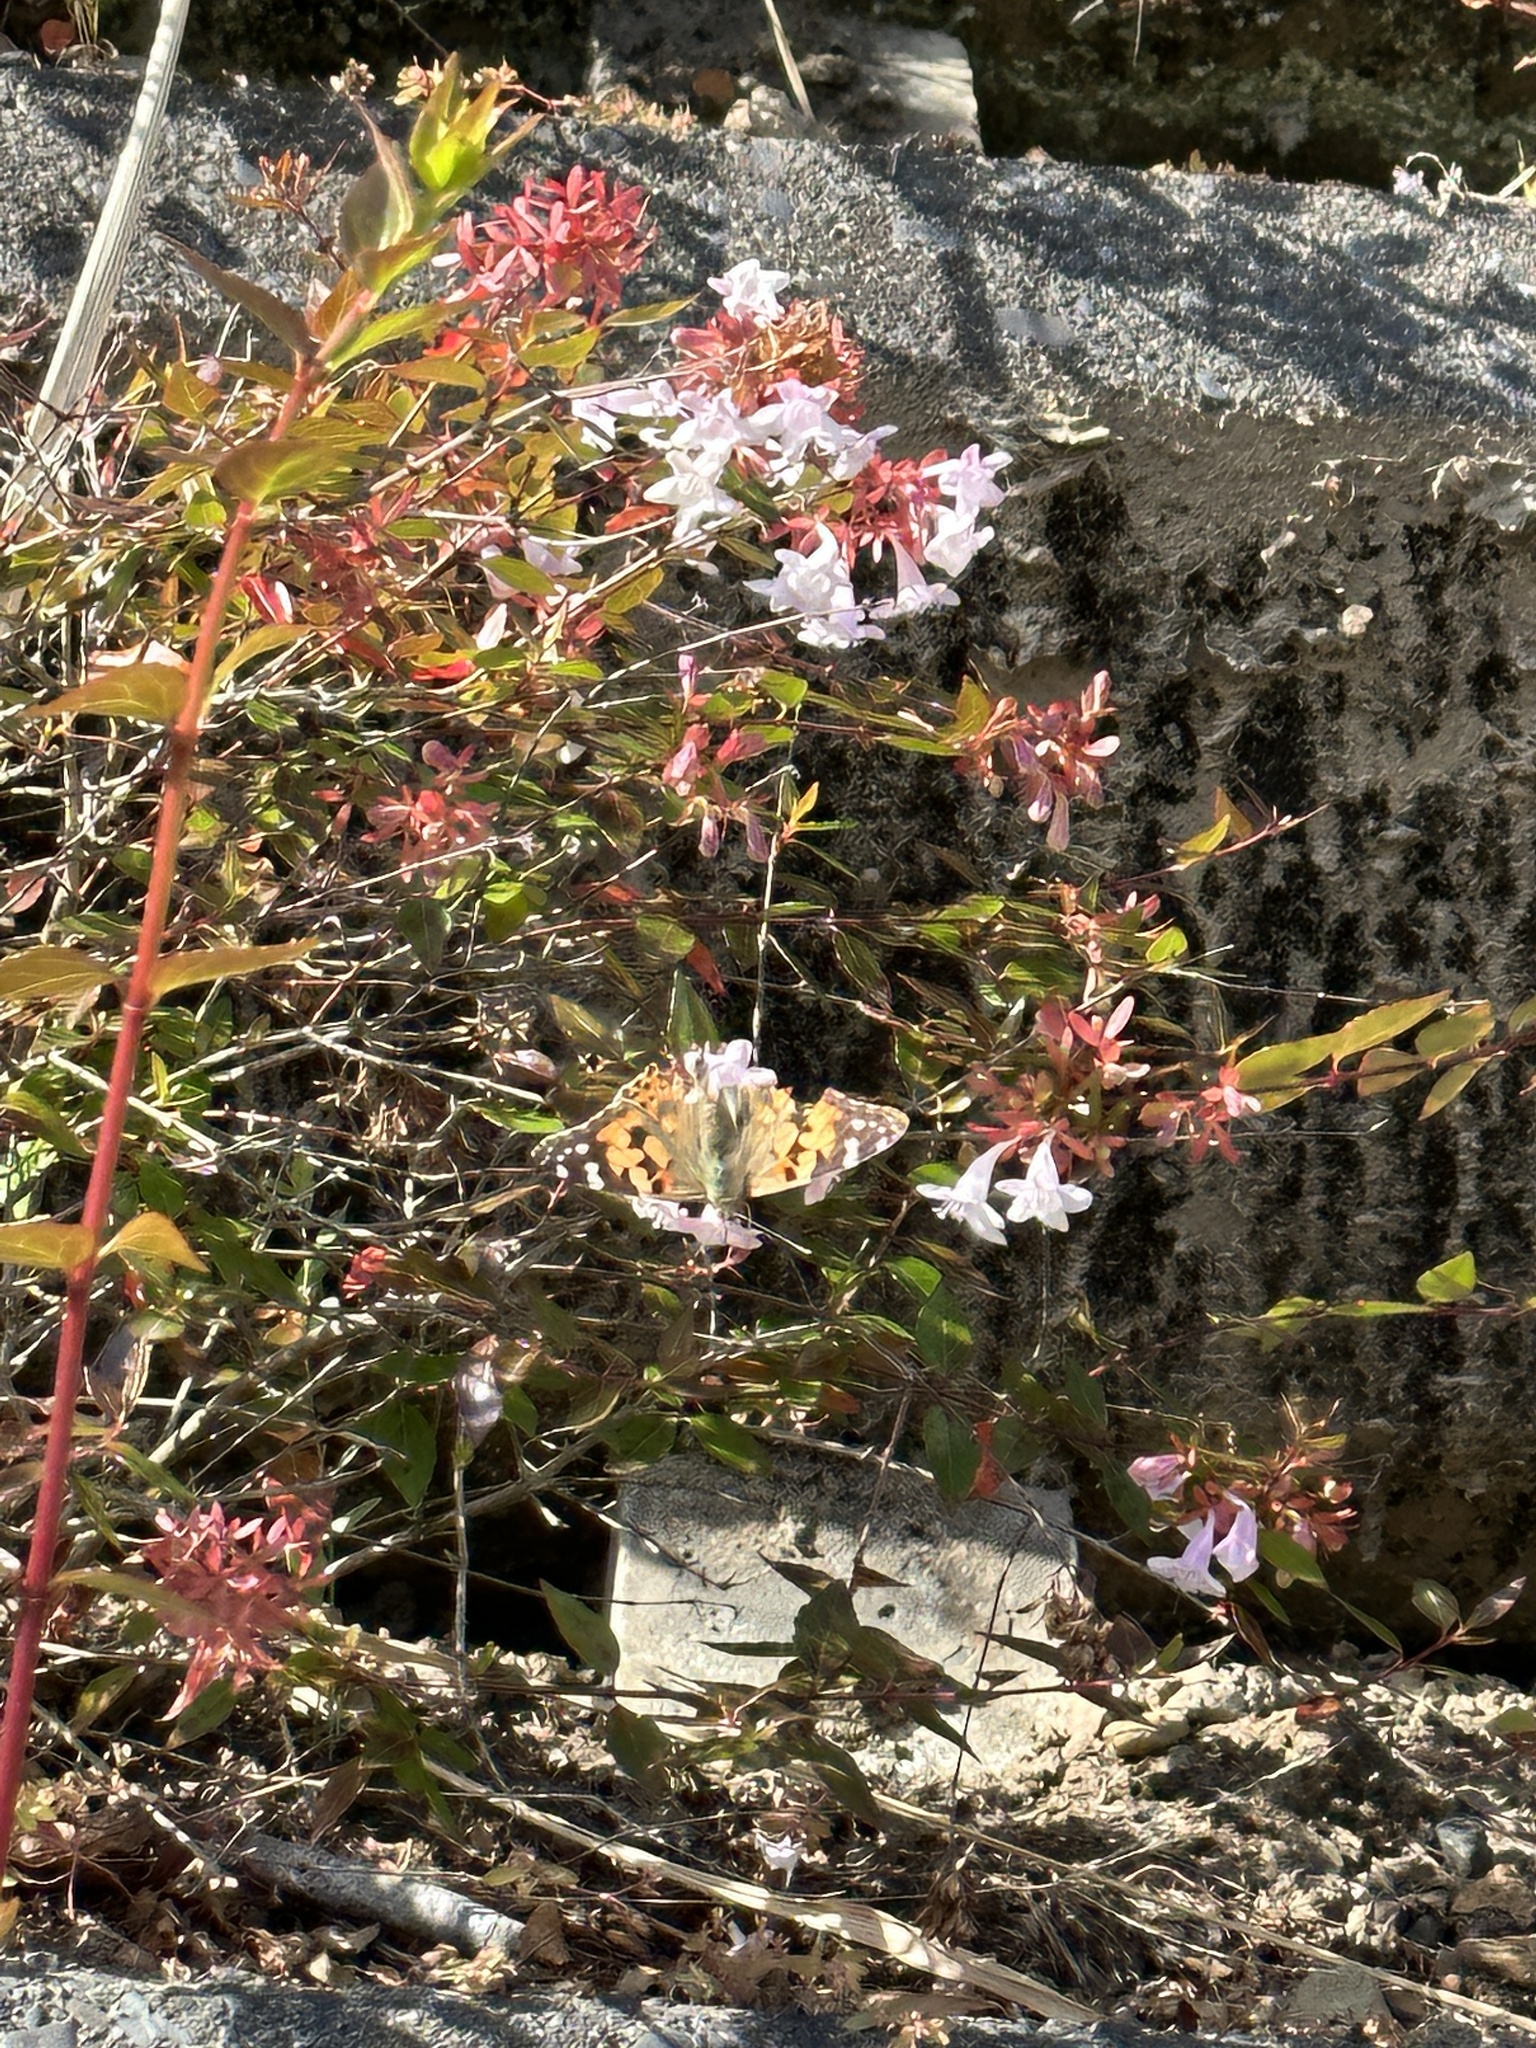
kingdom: Animalia
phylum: Arthropoda
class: Insecta
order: Lepidoptera
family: Nymphalidae
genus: Vanessa
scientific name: Vanessa cardui
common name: Painted lady
